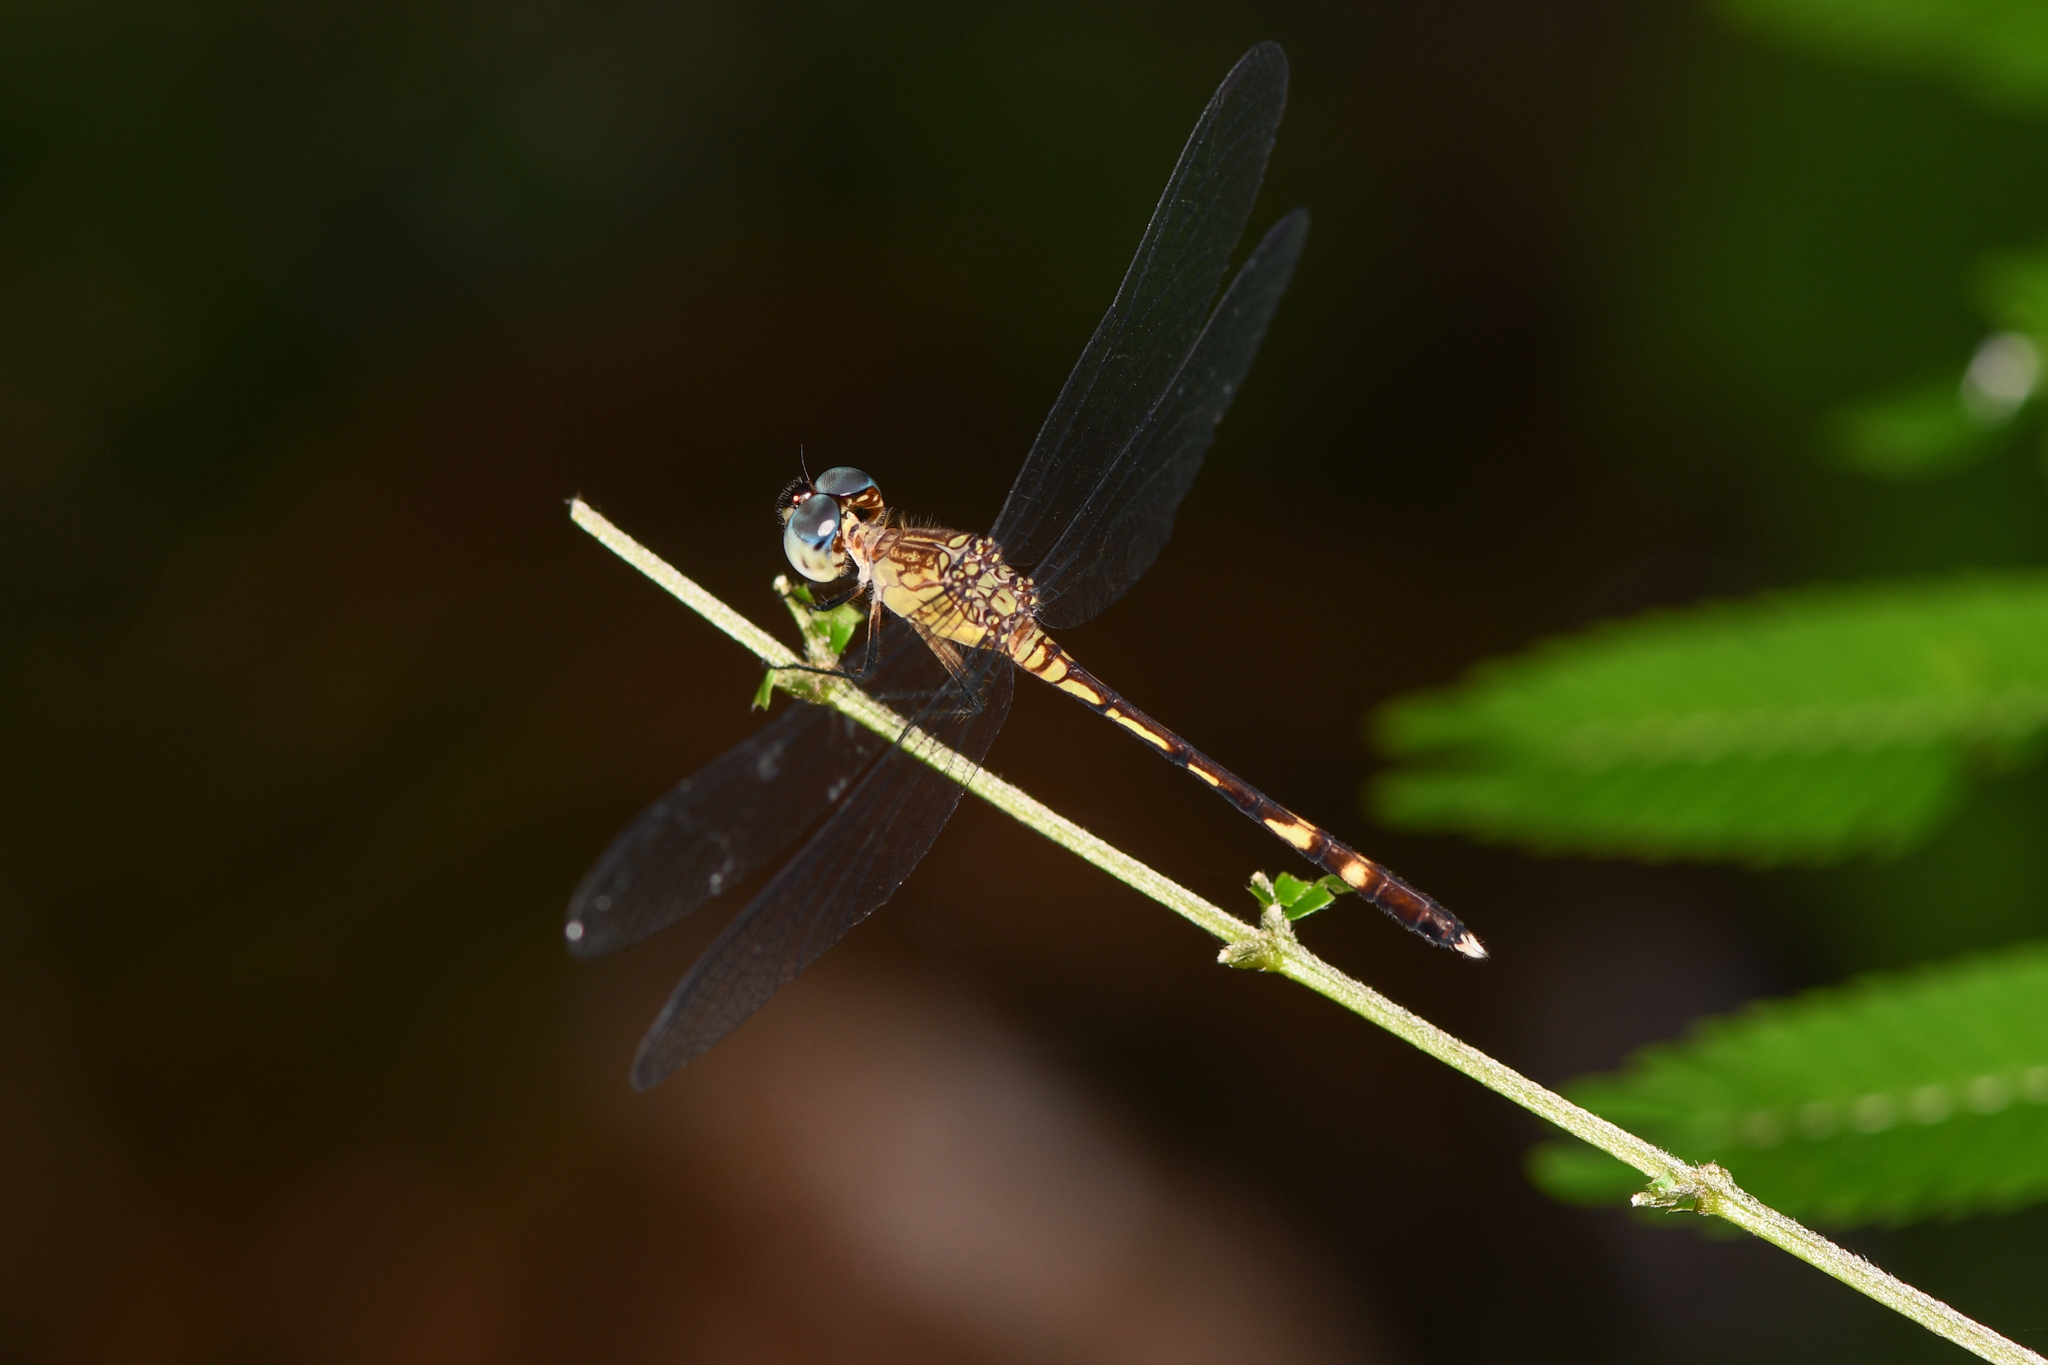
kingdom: Animalia
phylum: Arthropoda
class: Insecta
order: Odonata
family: Libellulidae
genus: Anatya
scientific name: Anatya guttata
